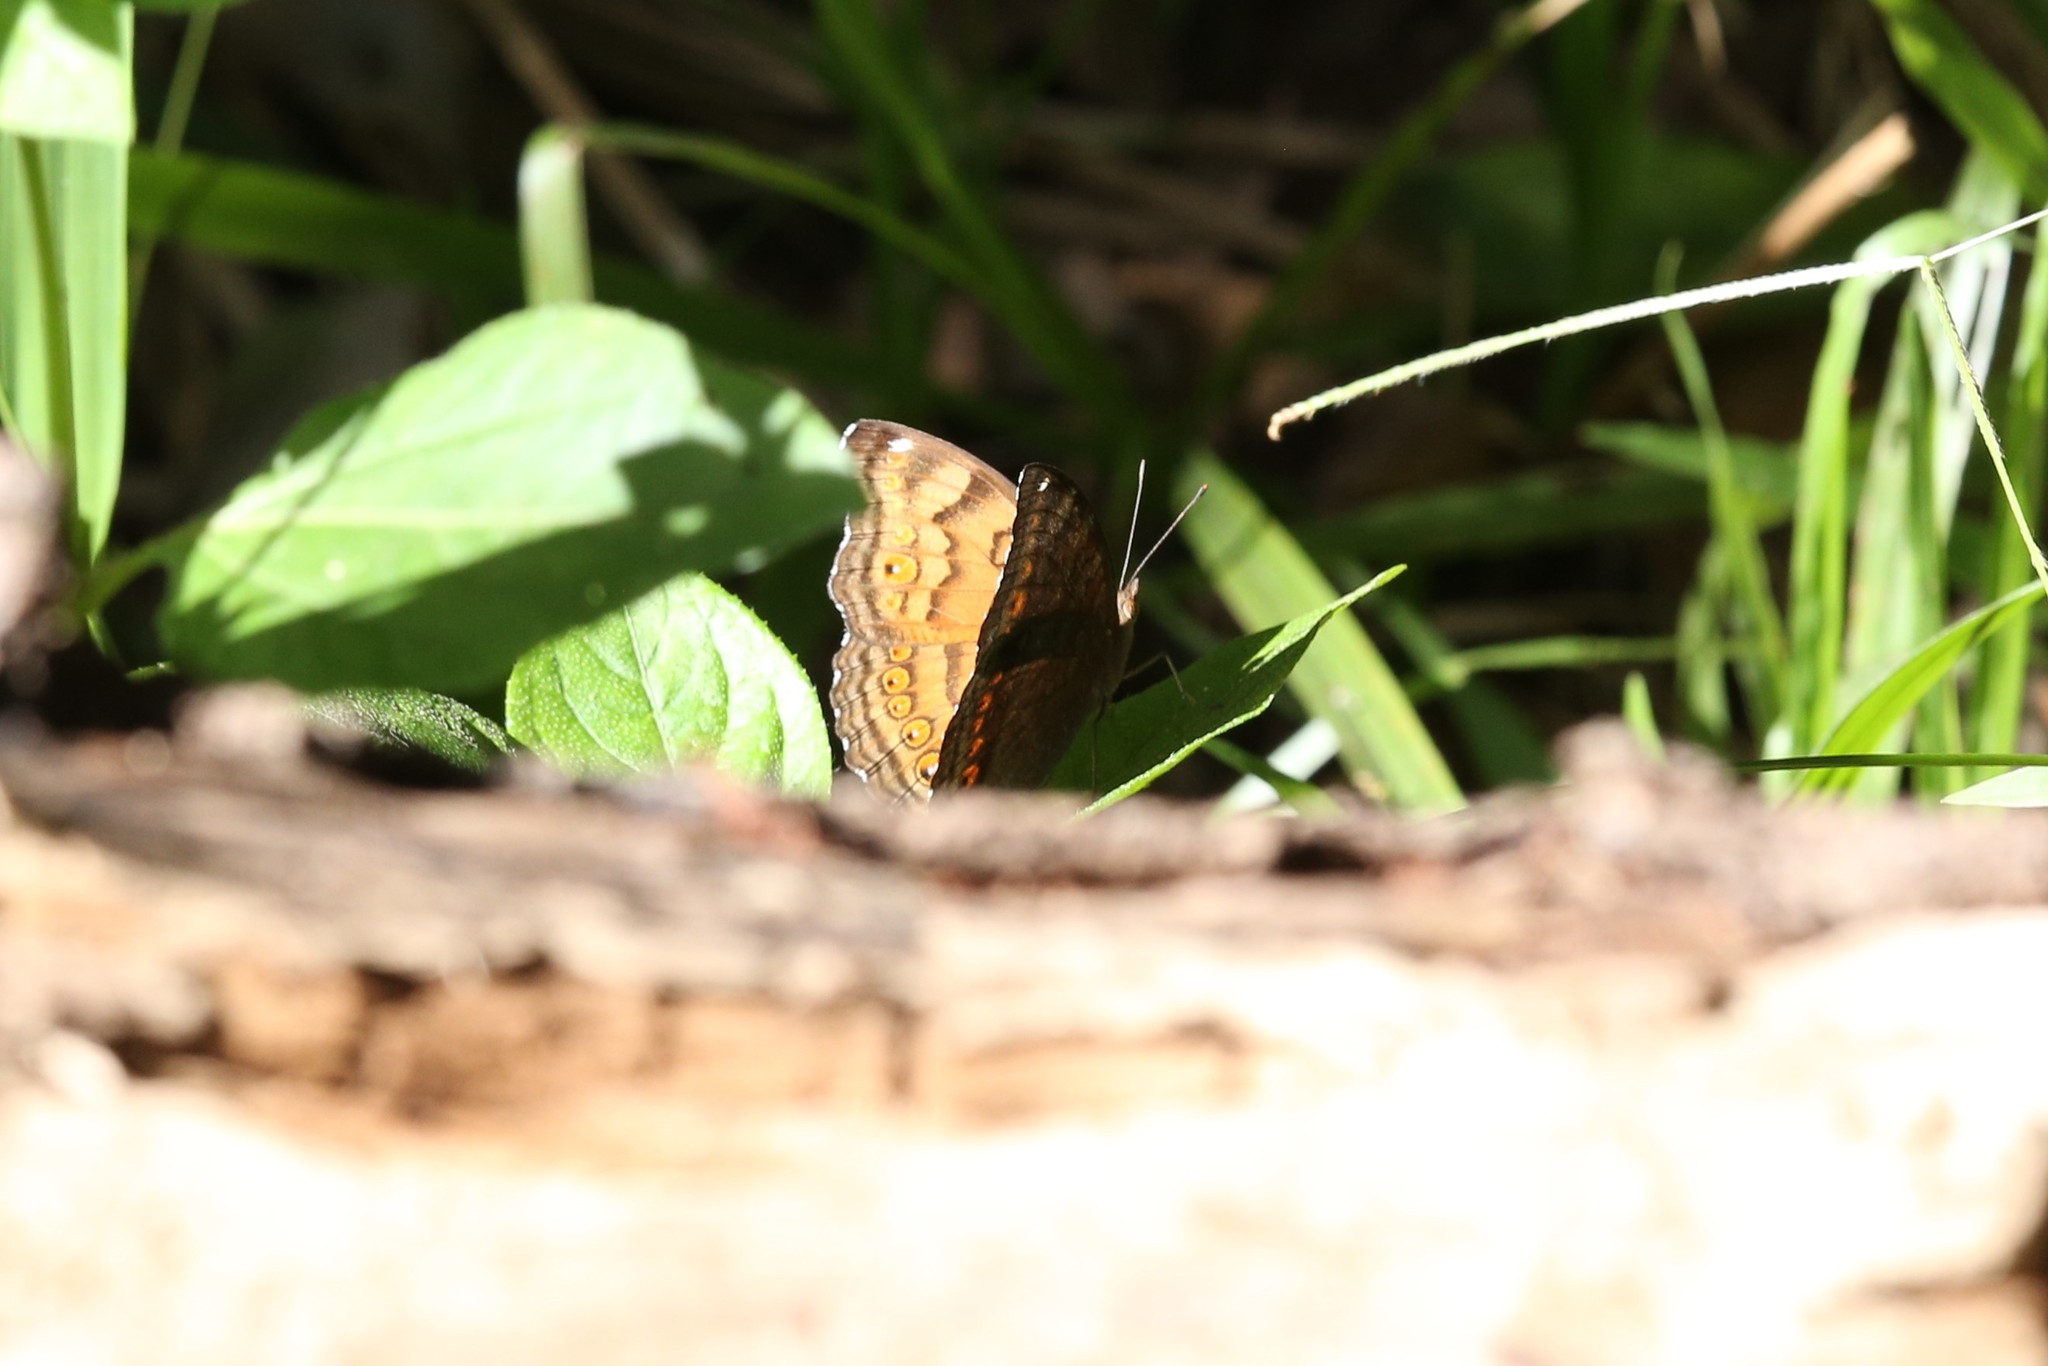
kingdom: Animalia
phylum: Arthropoda
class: Insecta
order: Lepidoptera
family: Nymphalidae
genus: Junonia
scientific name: Junonia hedonia
